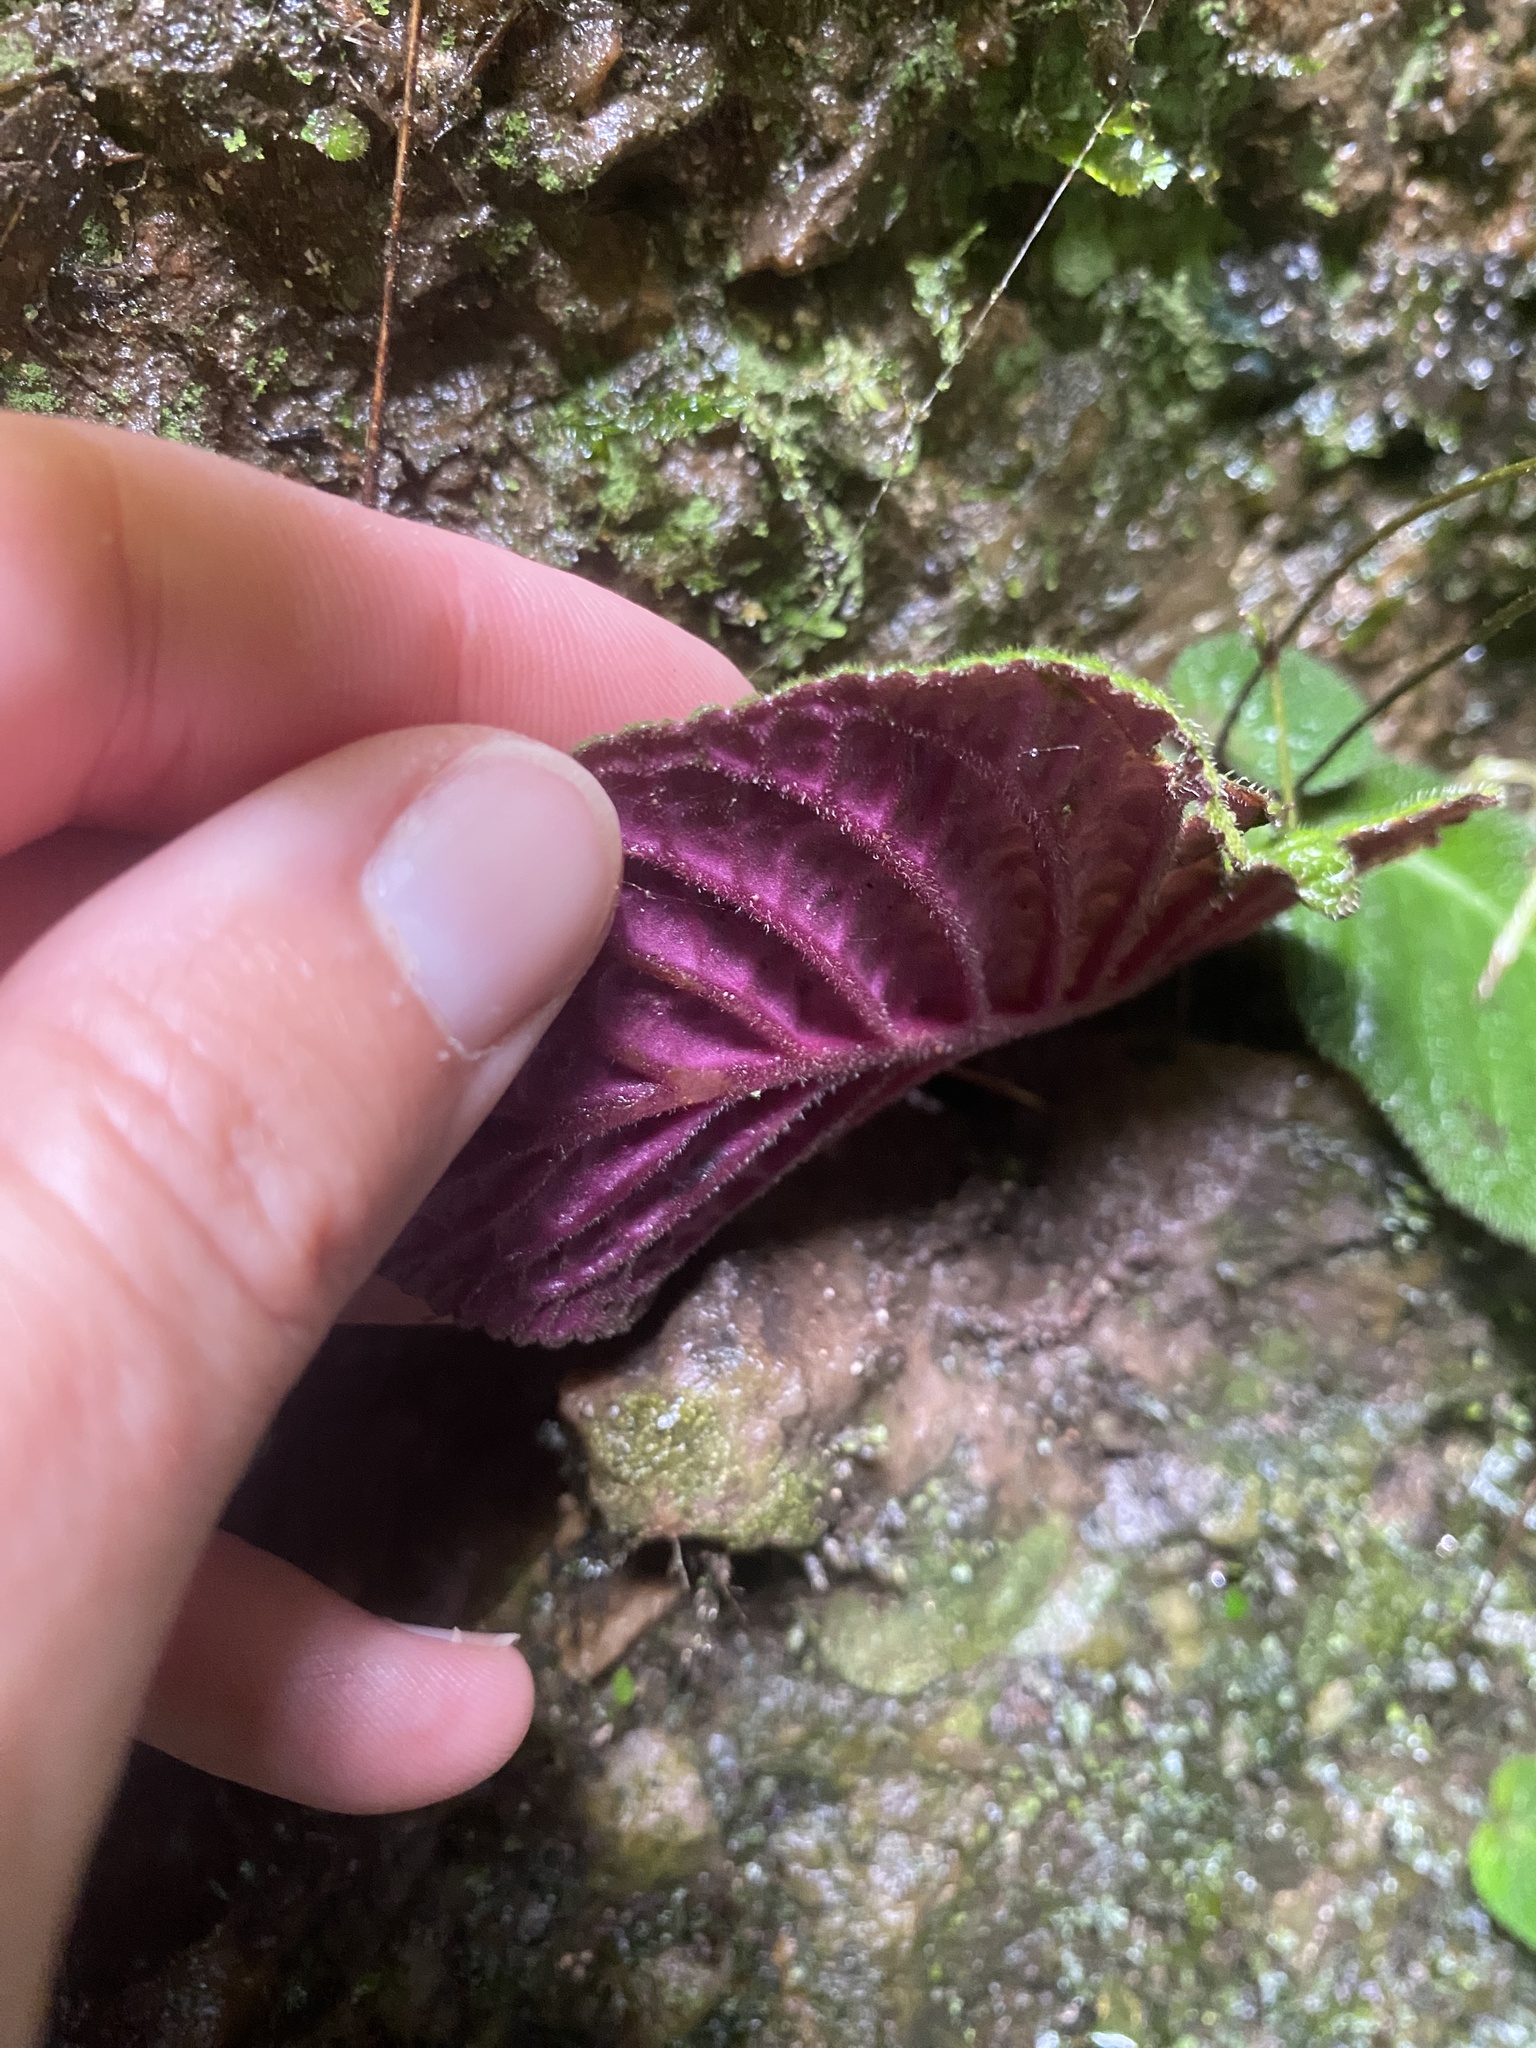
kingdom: Plantae
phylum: Tracheophyta
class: Magnoliopsida
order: Lamiales
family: Gesneriaceae
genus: Streptocarpus
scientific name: Streptocarpus prolixus
